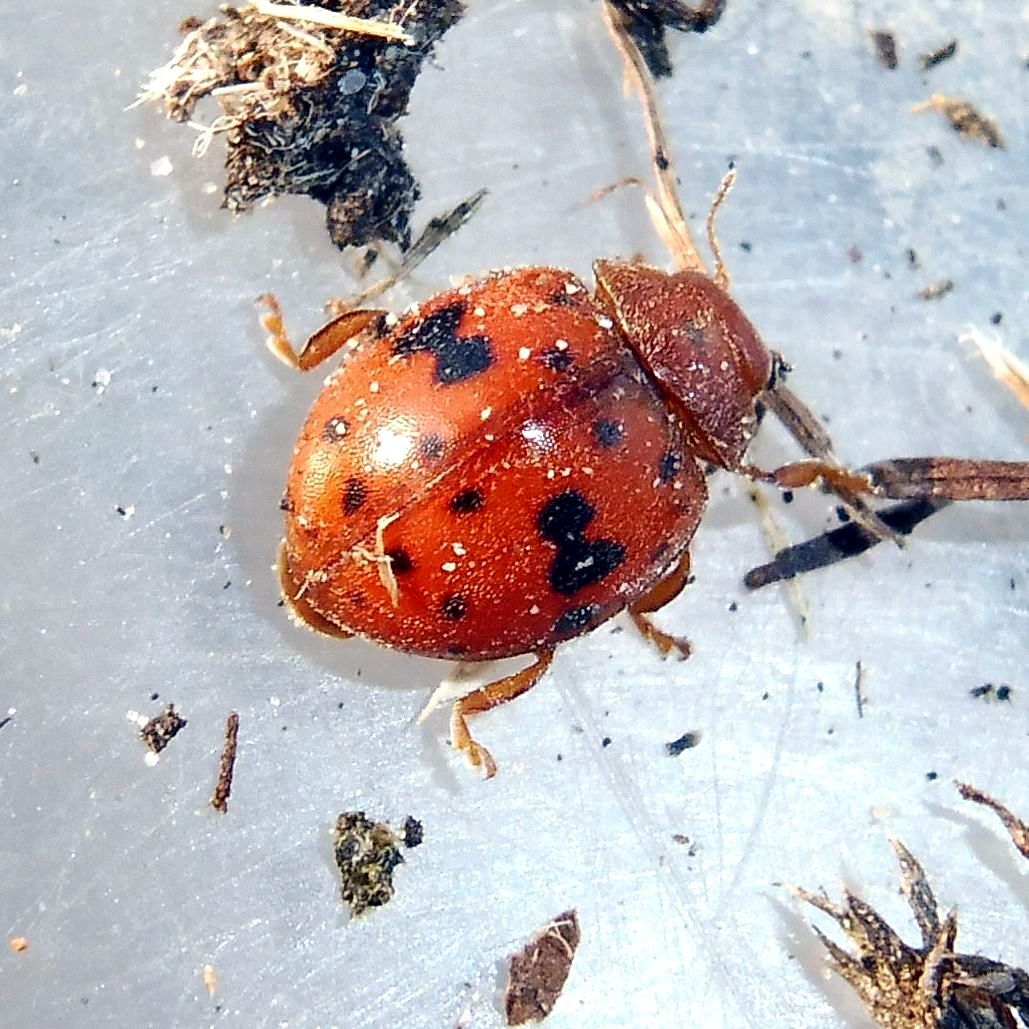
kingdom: Animalia
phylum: Arthropoda
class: Insecta
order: Coleoptera
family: Coccinellidae
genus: Subcoccinella
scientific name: Subcoccinella vigintiquatuorpunctata
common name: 24-spot ladybird
